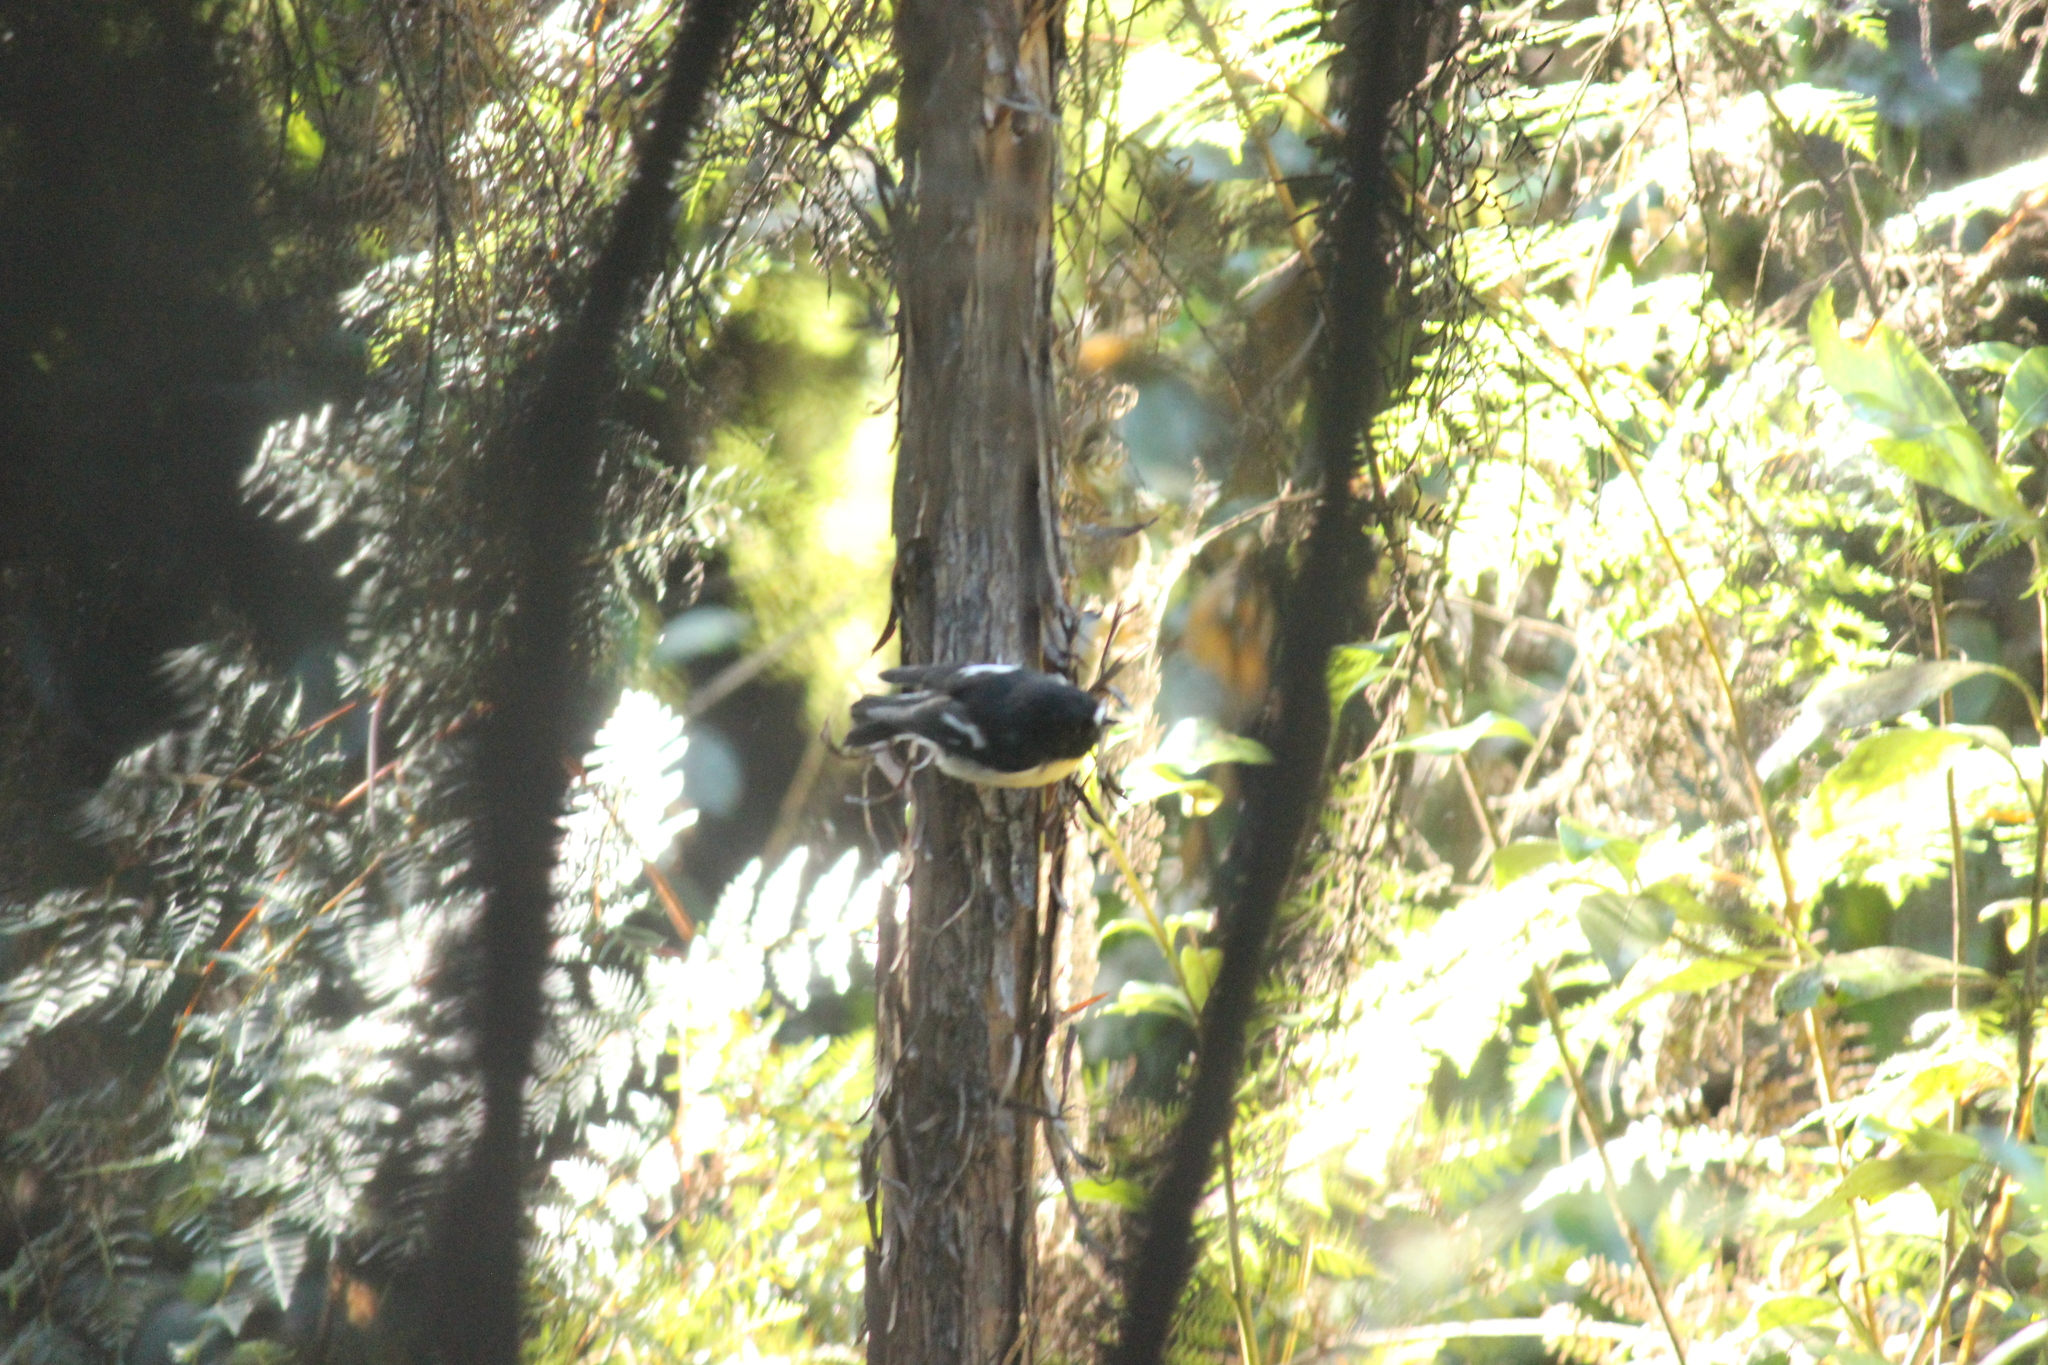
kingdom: Animalia
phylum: Chordata
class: Aves
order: Passeriformes
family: Petroicidae
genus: Petroica
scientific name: Petroica macrocephala
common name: Tomtit
